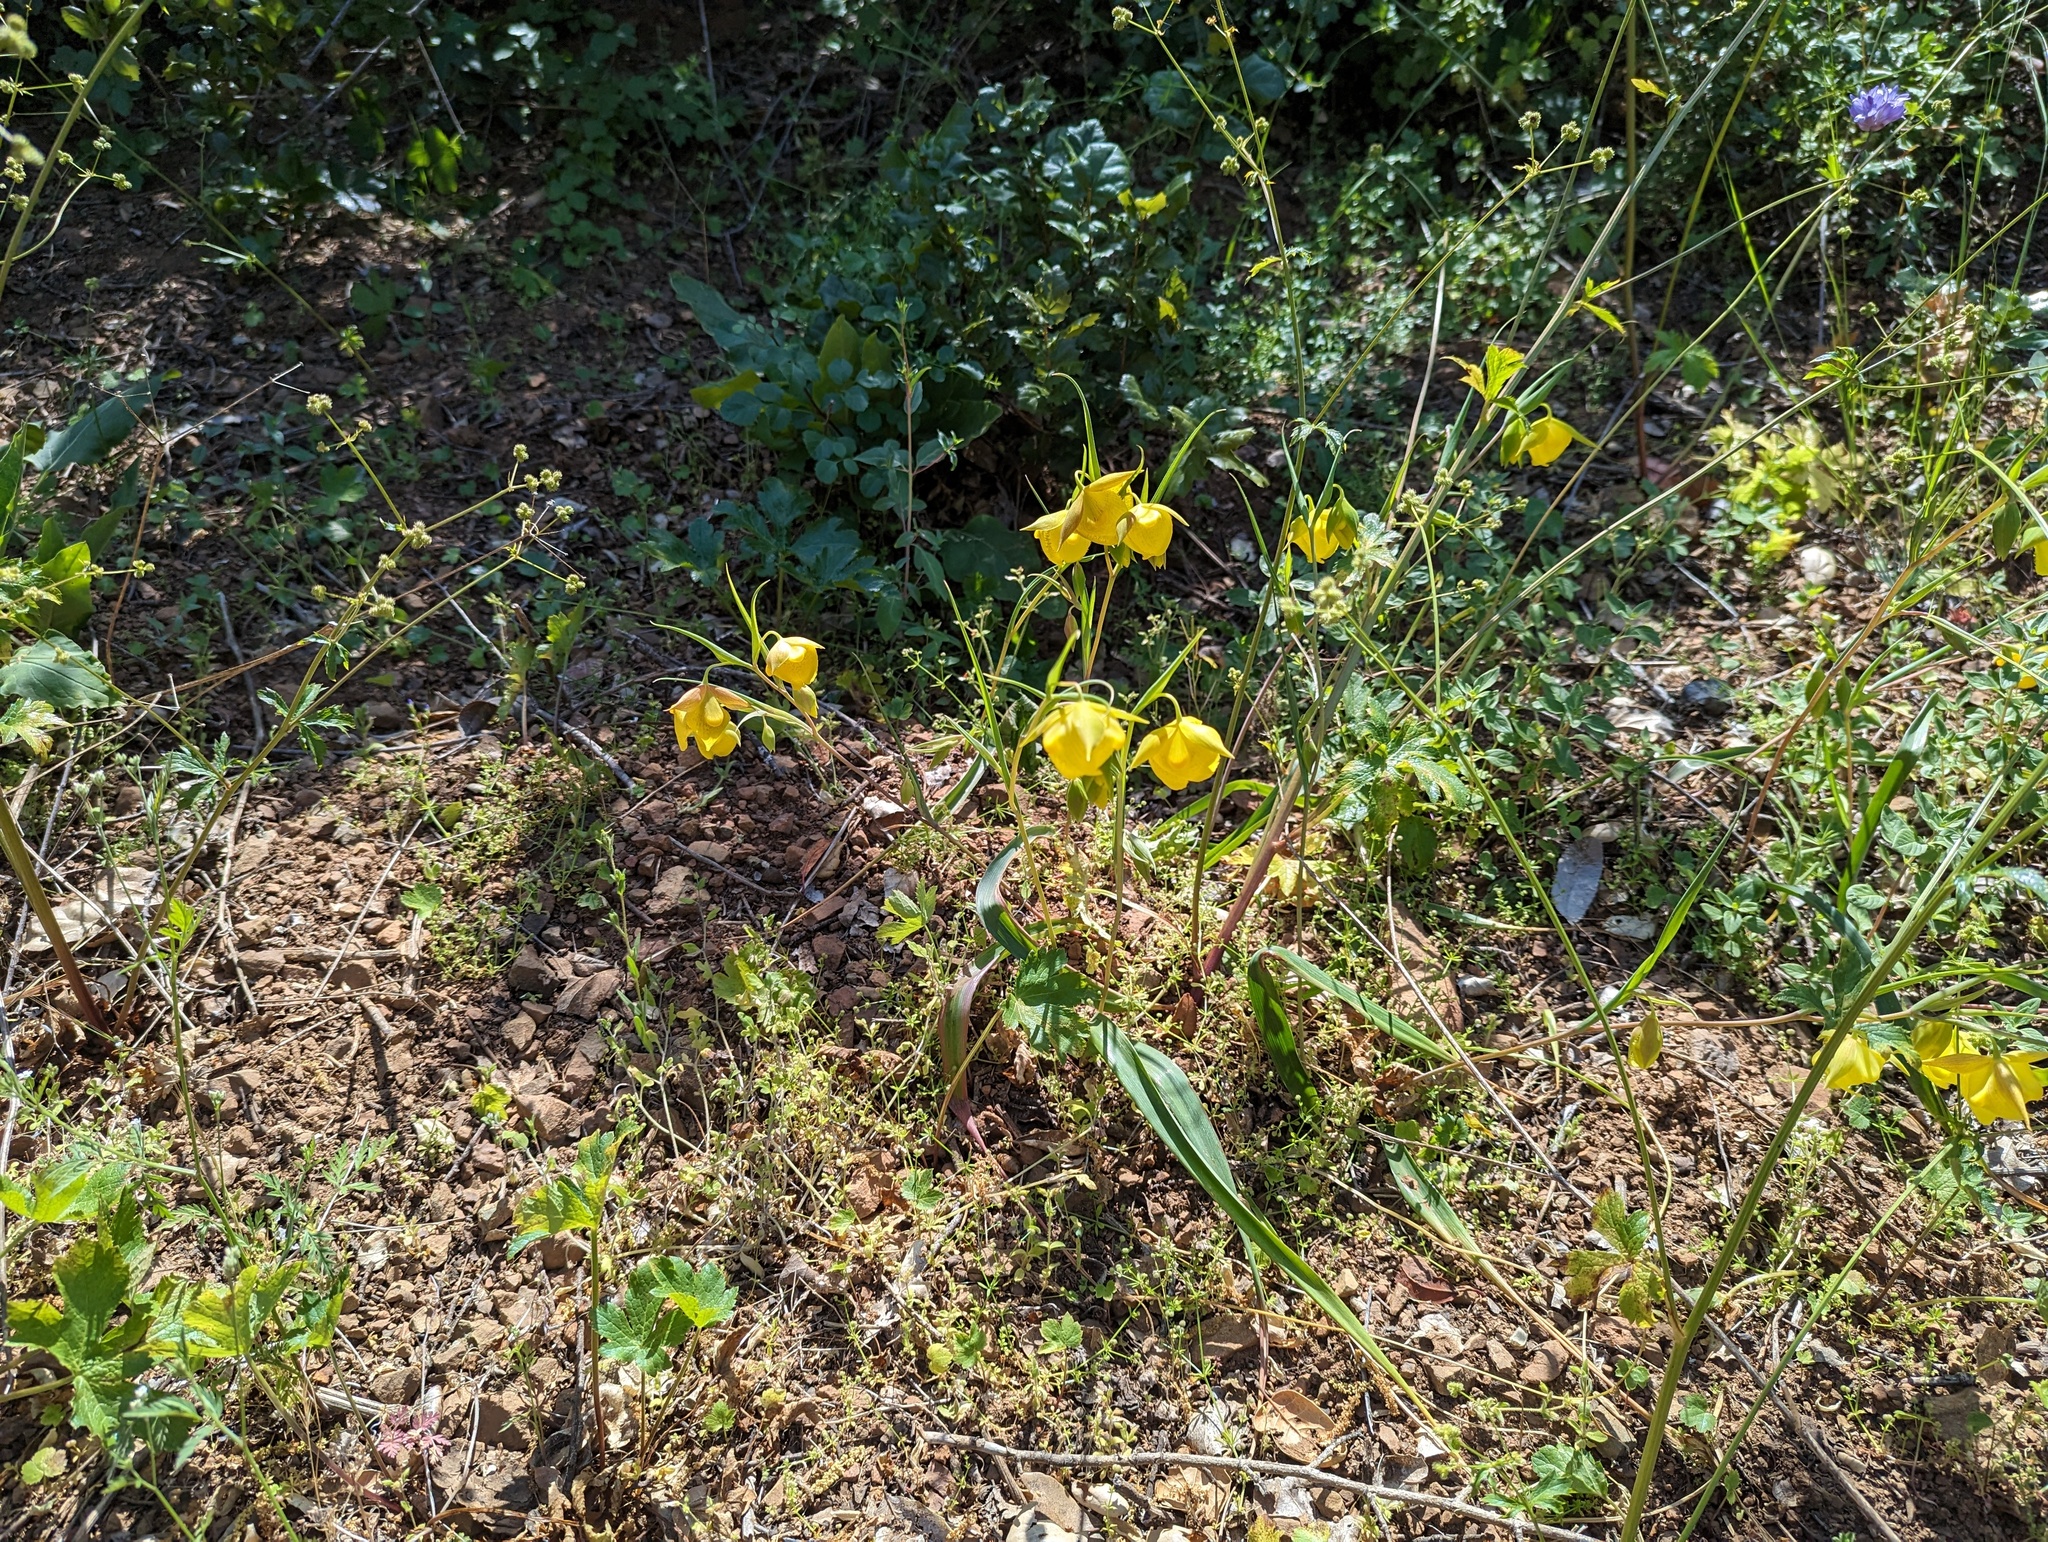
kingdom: Plantae
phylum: Tracheophyta
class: Liliopsida
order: Liliales
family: Liliaceae
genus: Calochortus
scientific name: Calochortus pulchellus
